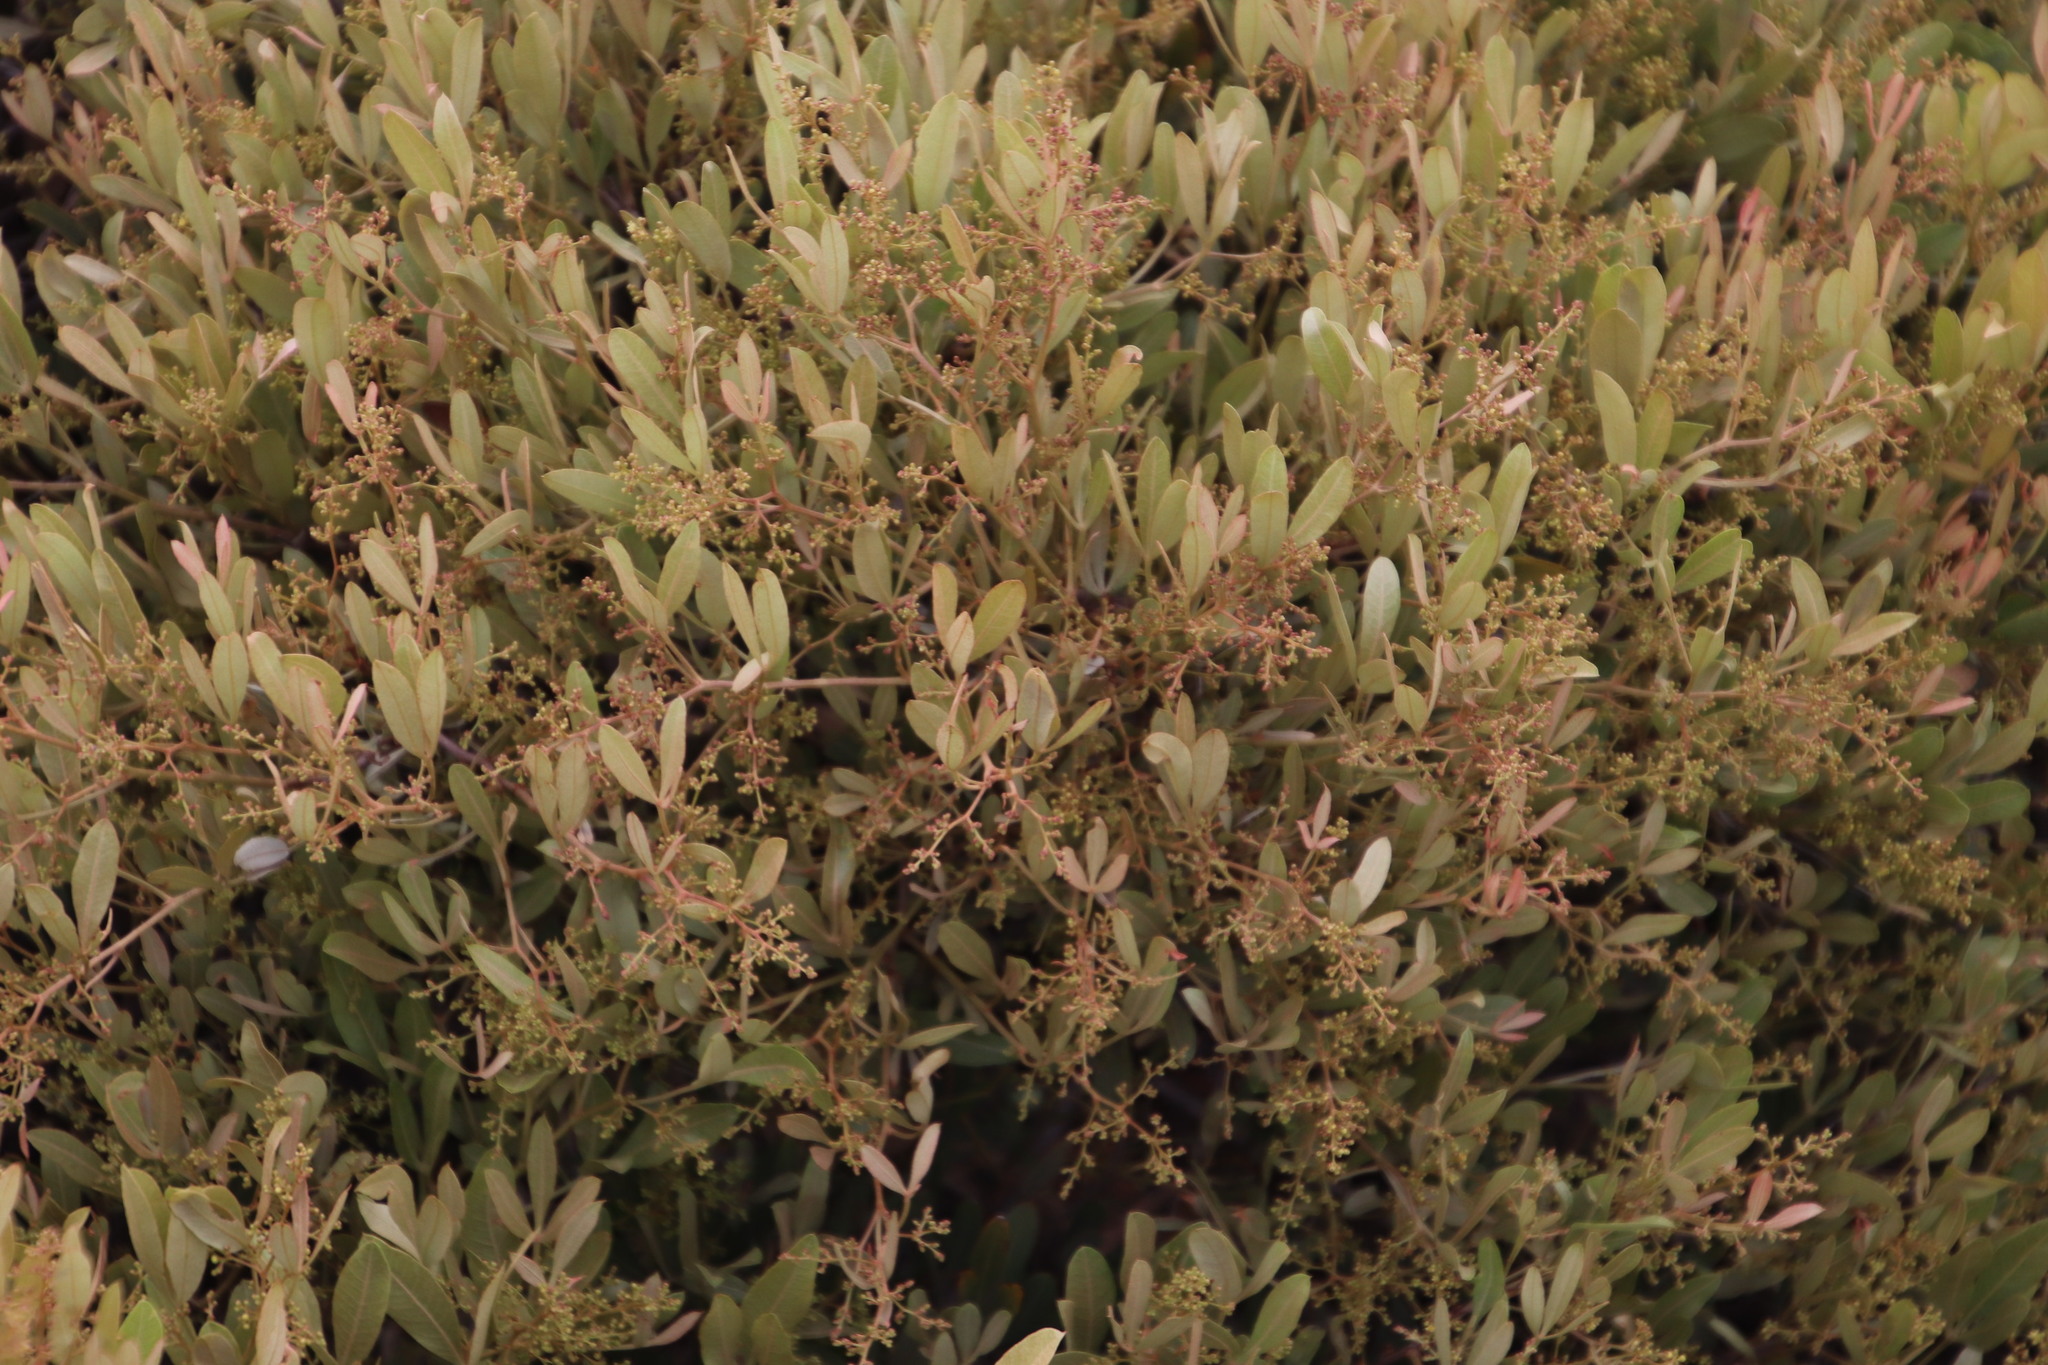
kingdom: Plantae
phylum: Tracheophyta
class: Magnoliopsida
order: Sapindales
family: Anacardiaceae
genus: Searsia
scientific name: Searsia magalismontana
